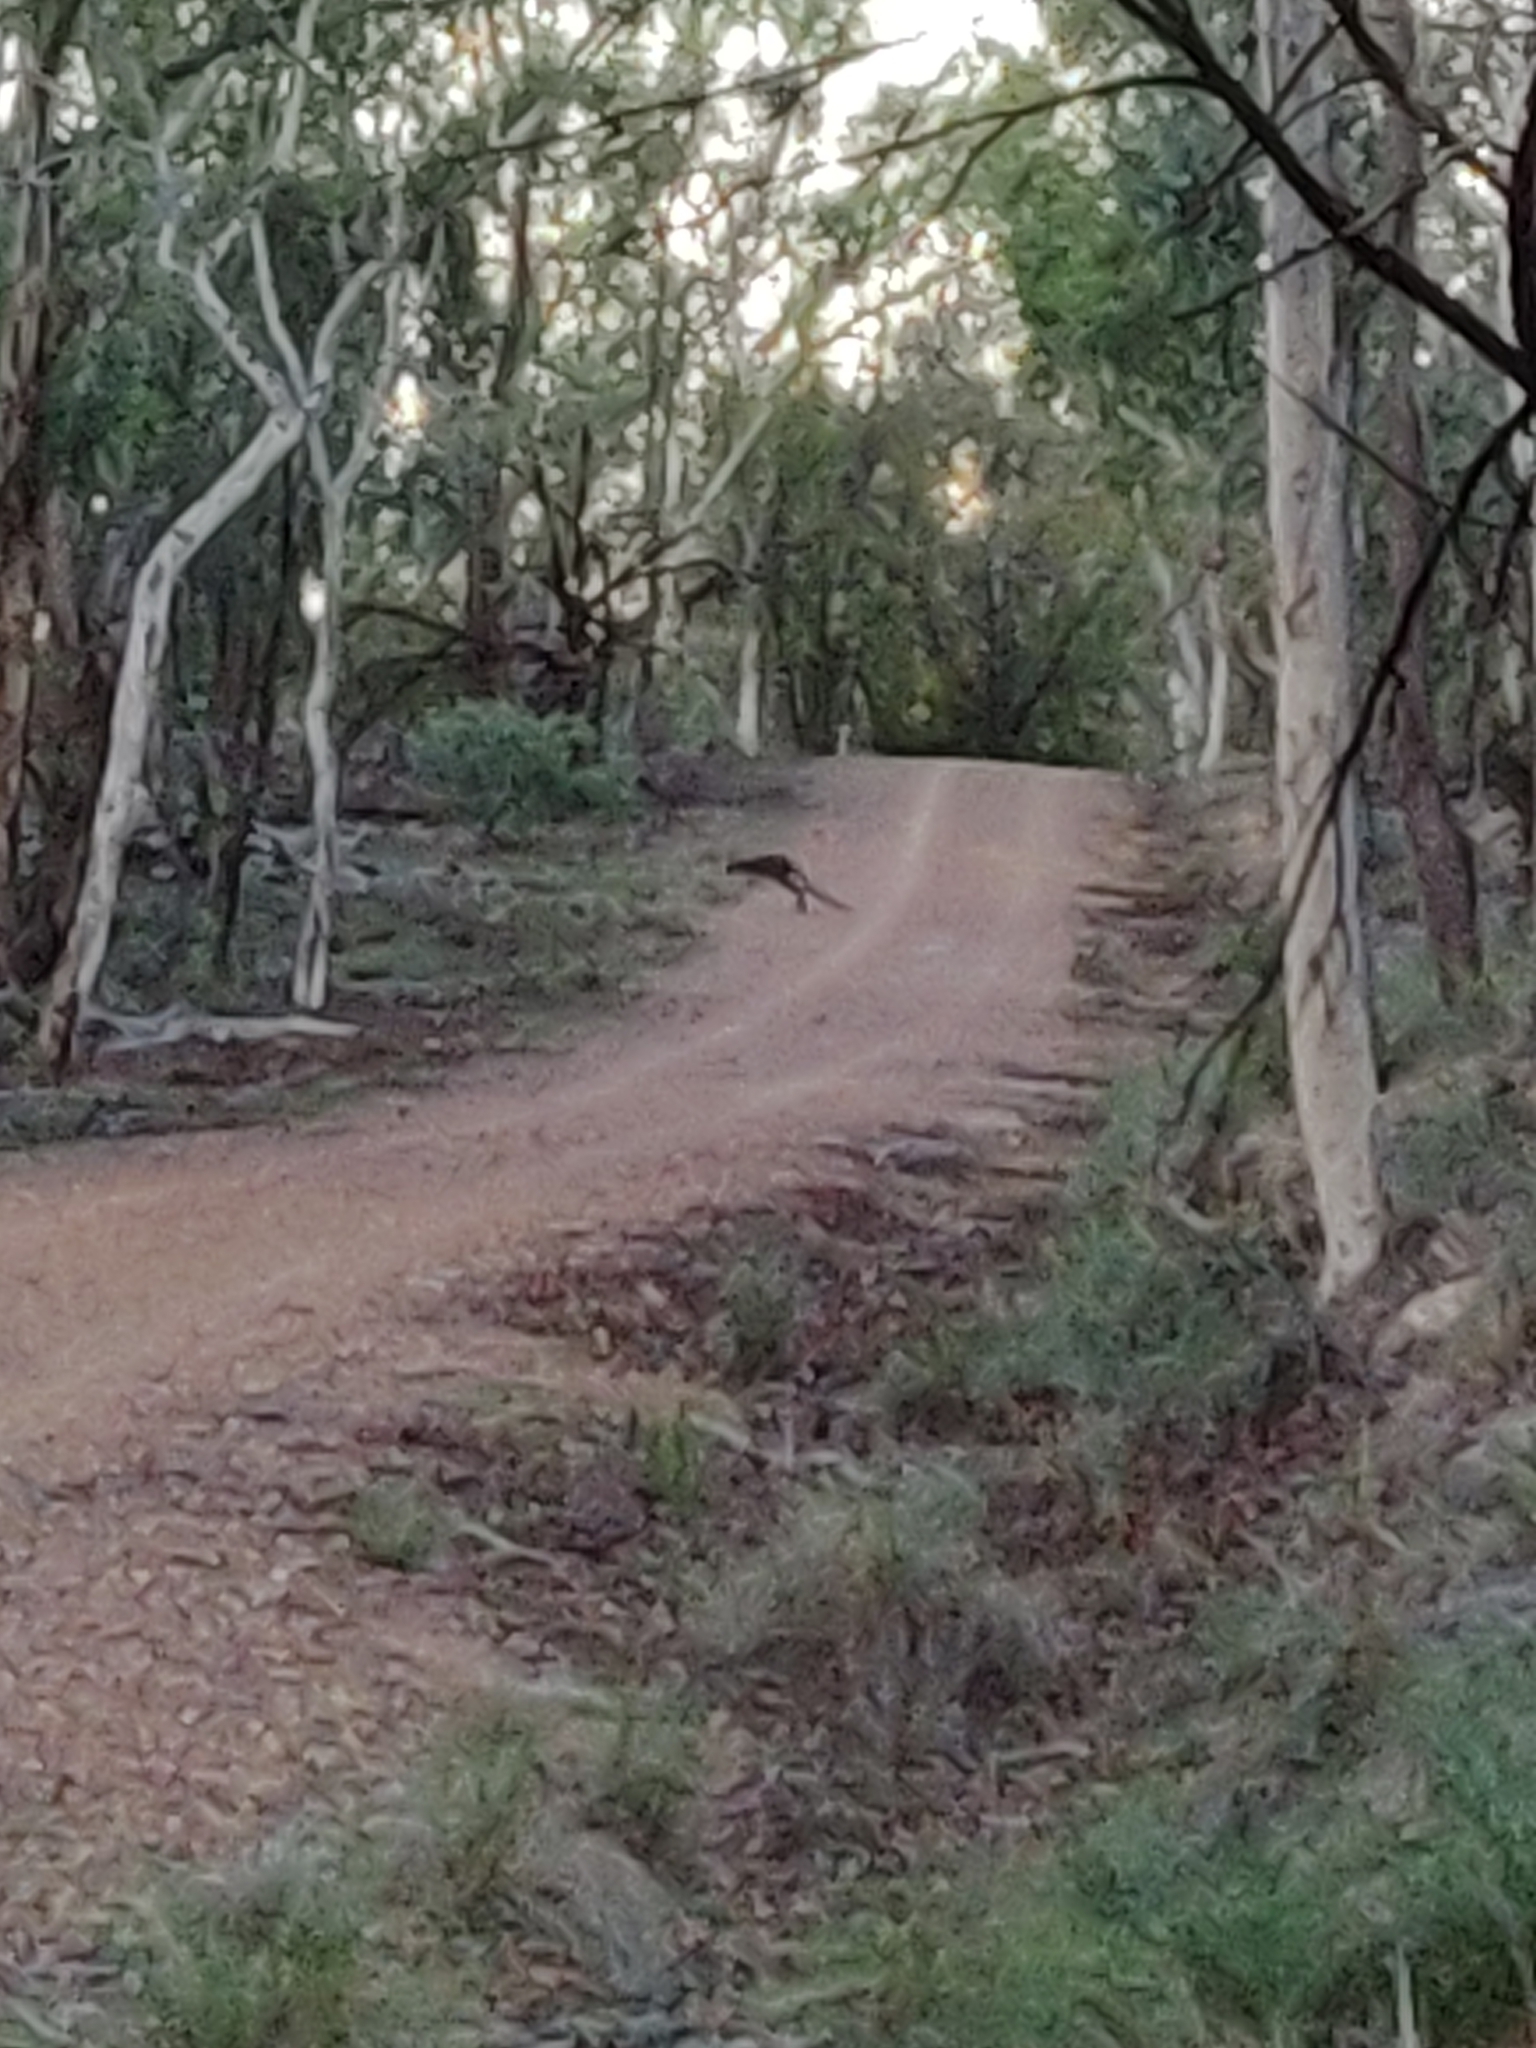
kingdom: Animalia
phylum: Chordata
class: Mammalia
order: Diprotodontia
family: Macropodidae
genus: Wallabia
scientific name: Wallabia bicolor
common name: Swamp wallaby
